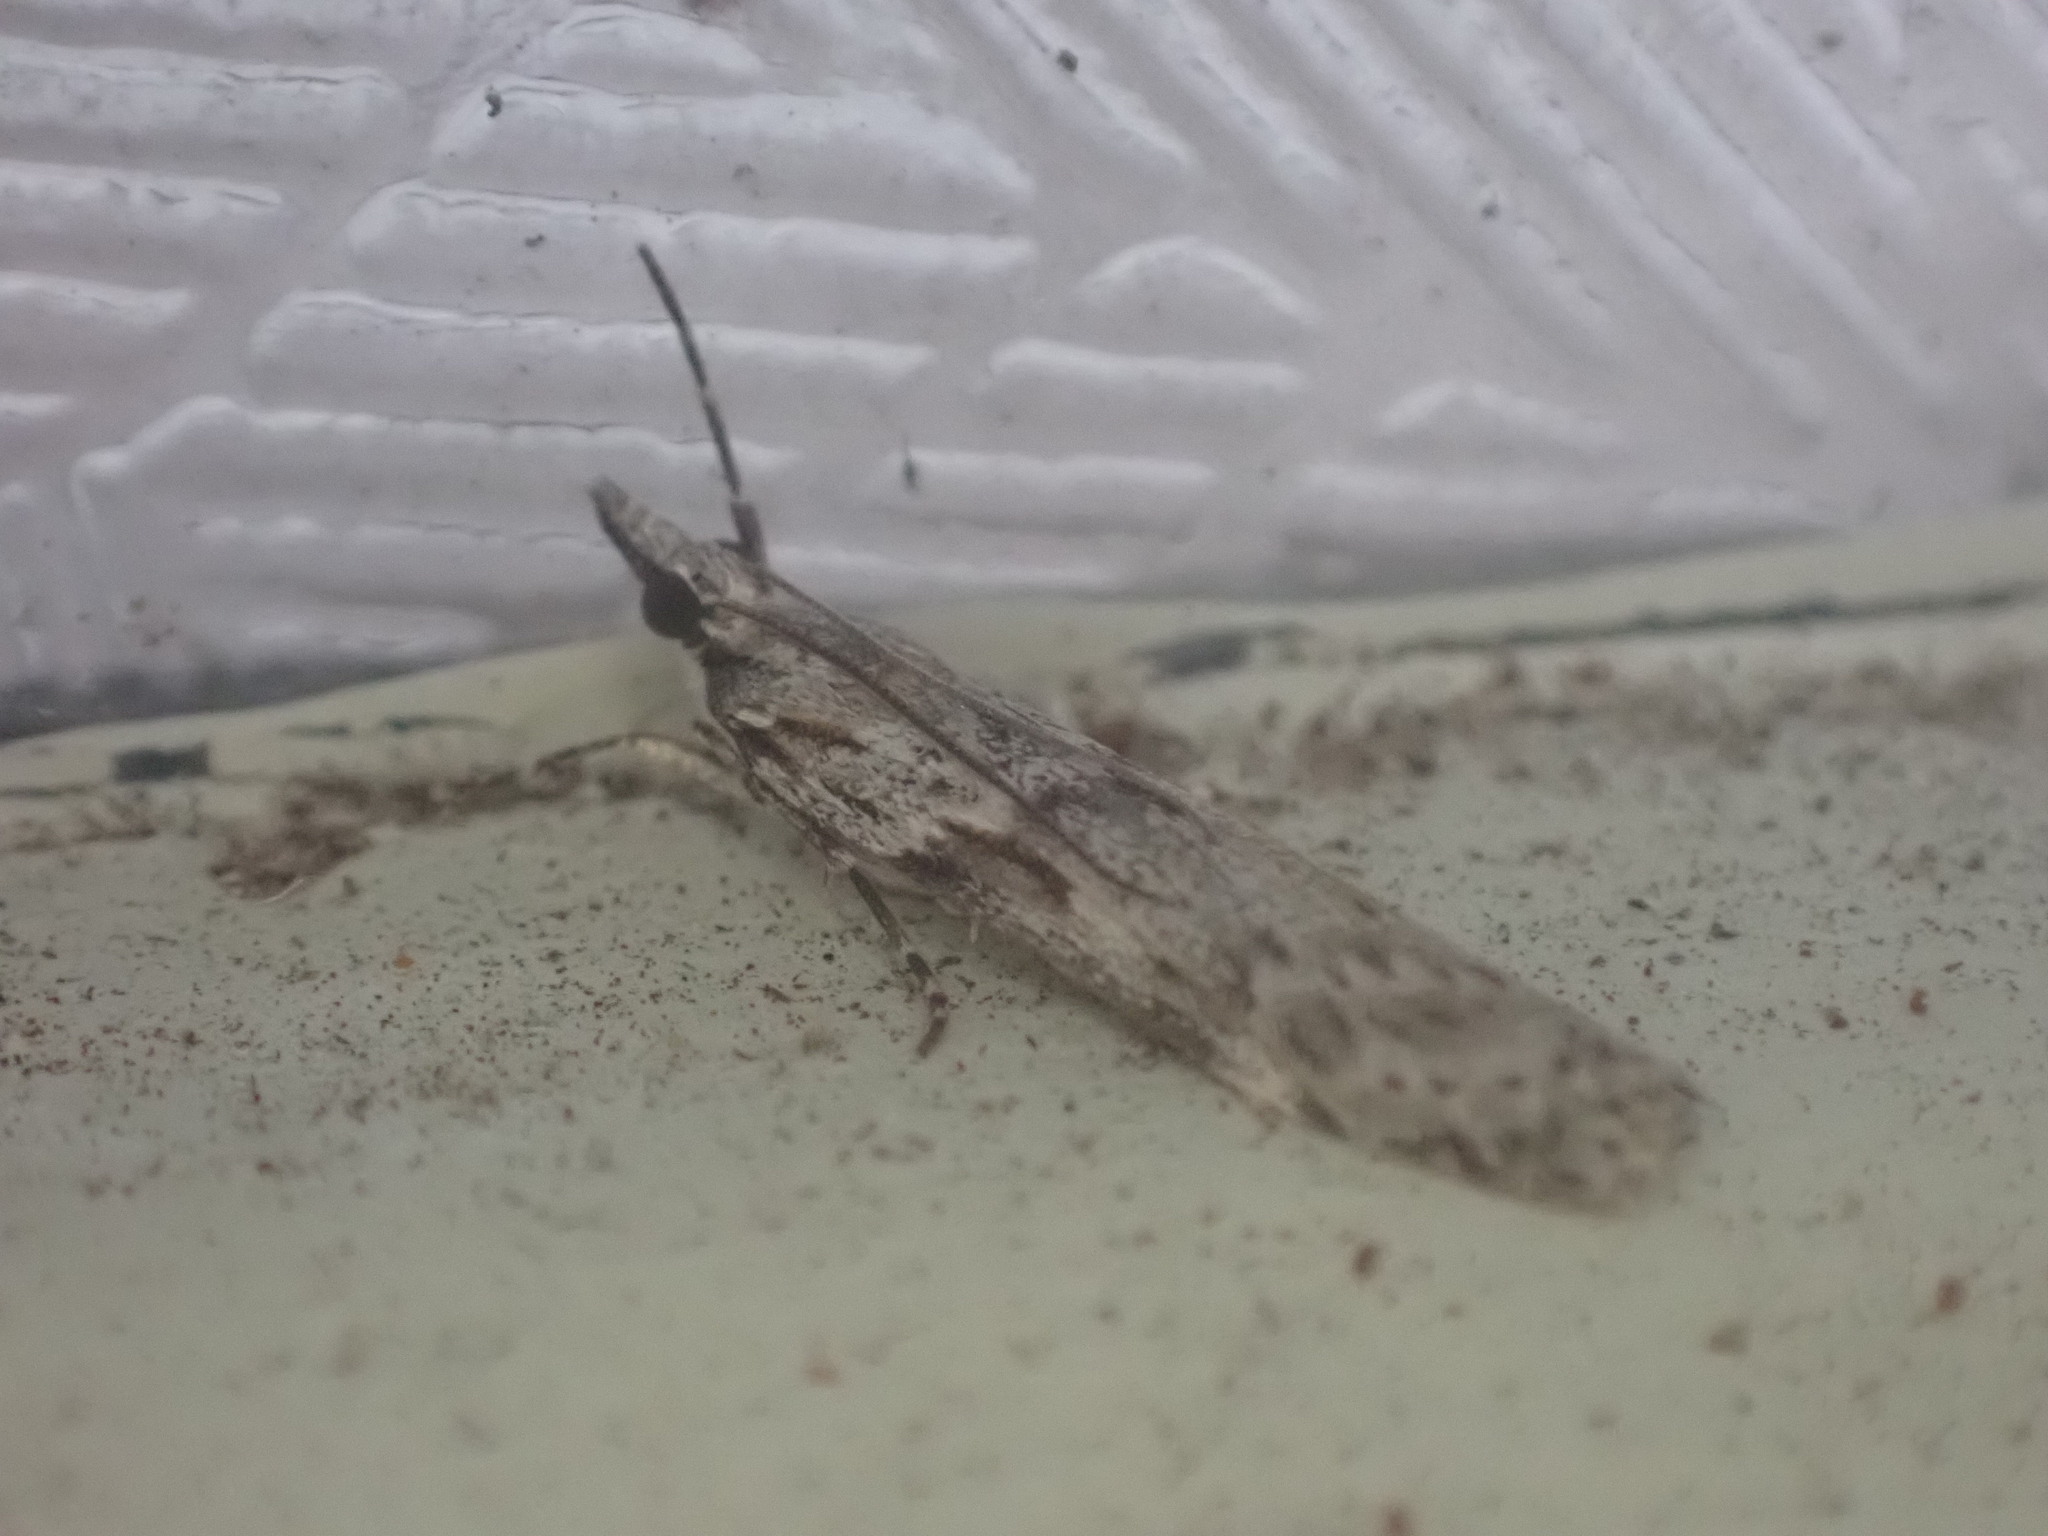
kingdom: Animalia
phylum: Arthropoda
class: Insecta
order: Lepidoptera
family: Crambidae
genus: Scoparia
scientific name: Scoparia halopis
